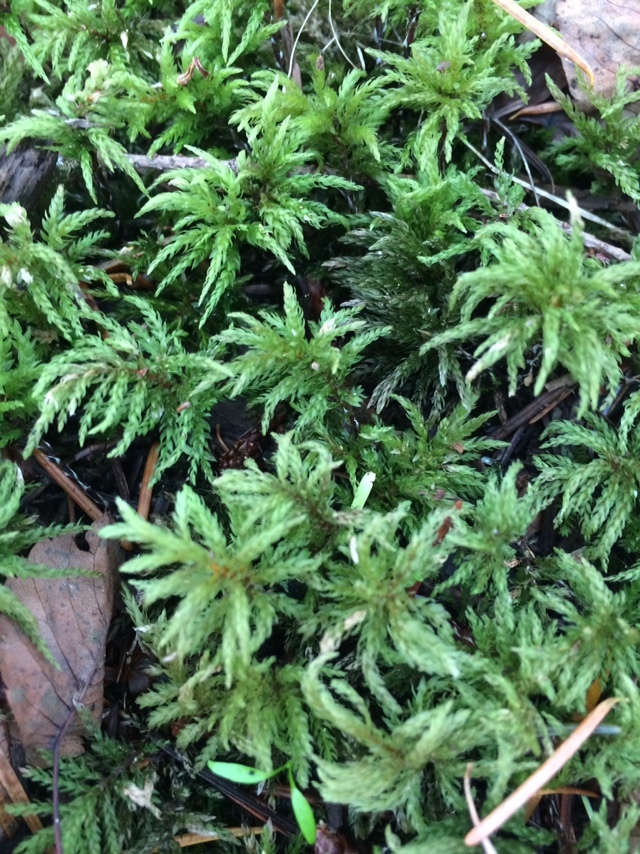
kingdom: Plantae
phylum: Bryophyta
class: Bryopsida
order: Bryales
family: Mniaceae
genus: Leucolepis
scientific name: Leucolepis acanthoneura
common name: Leucolepis umbrella moss
